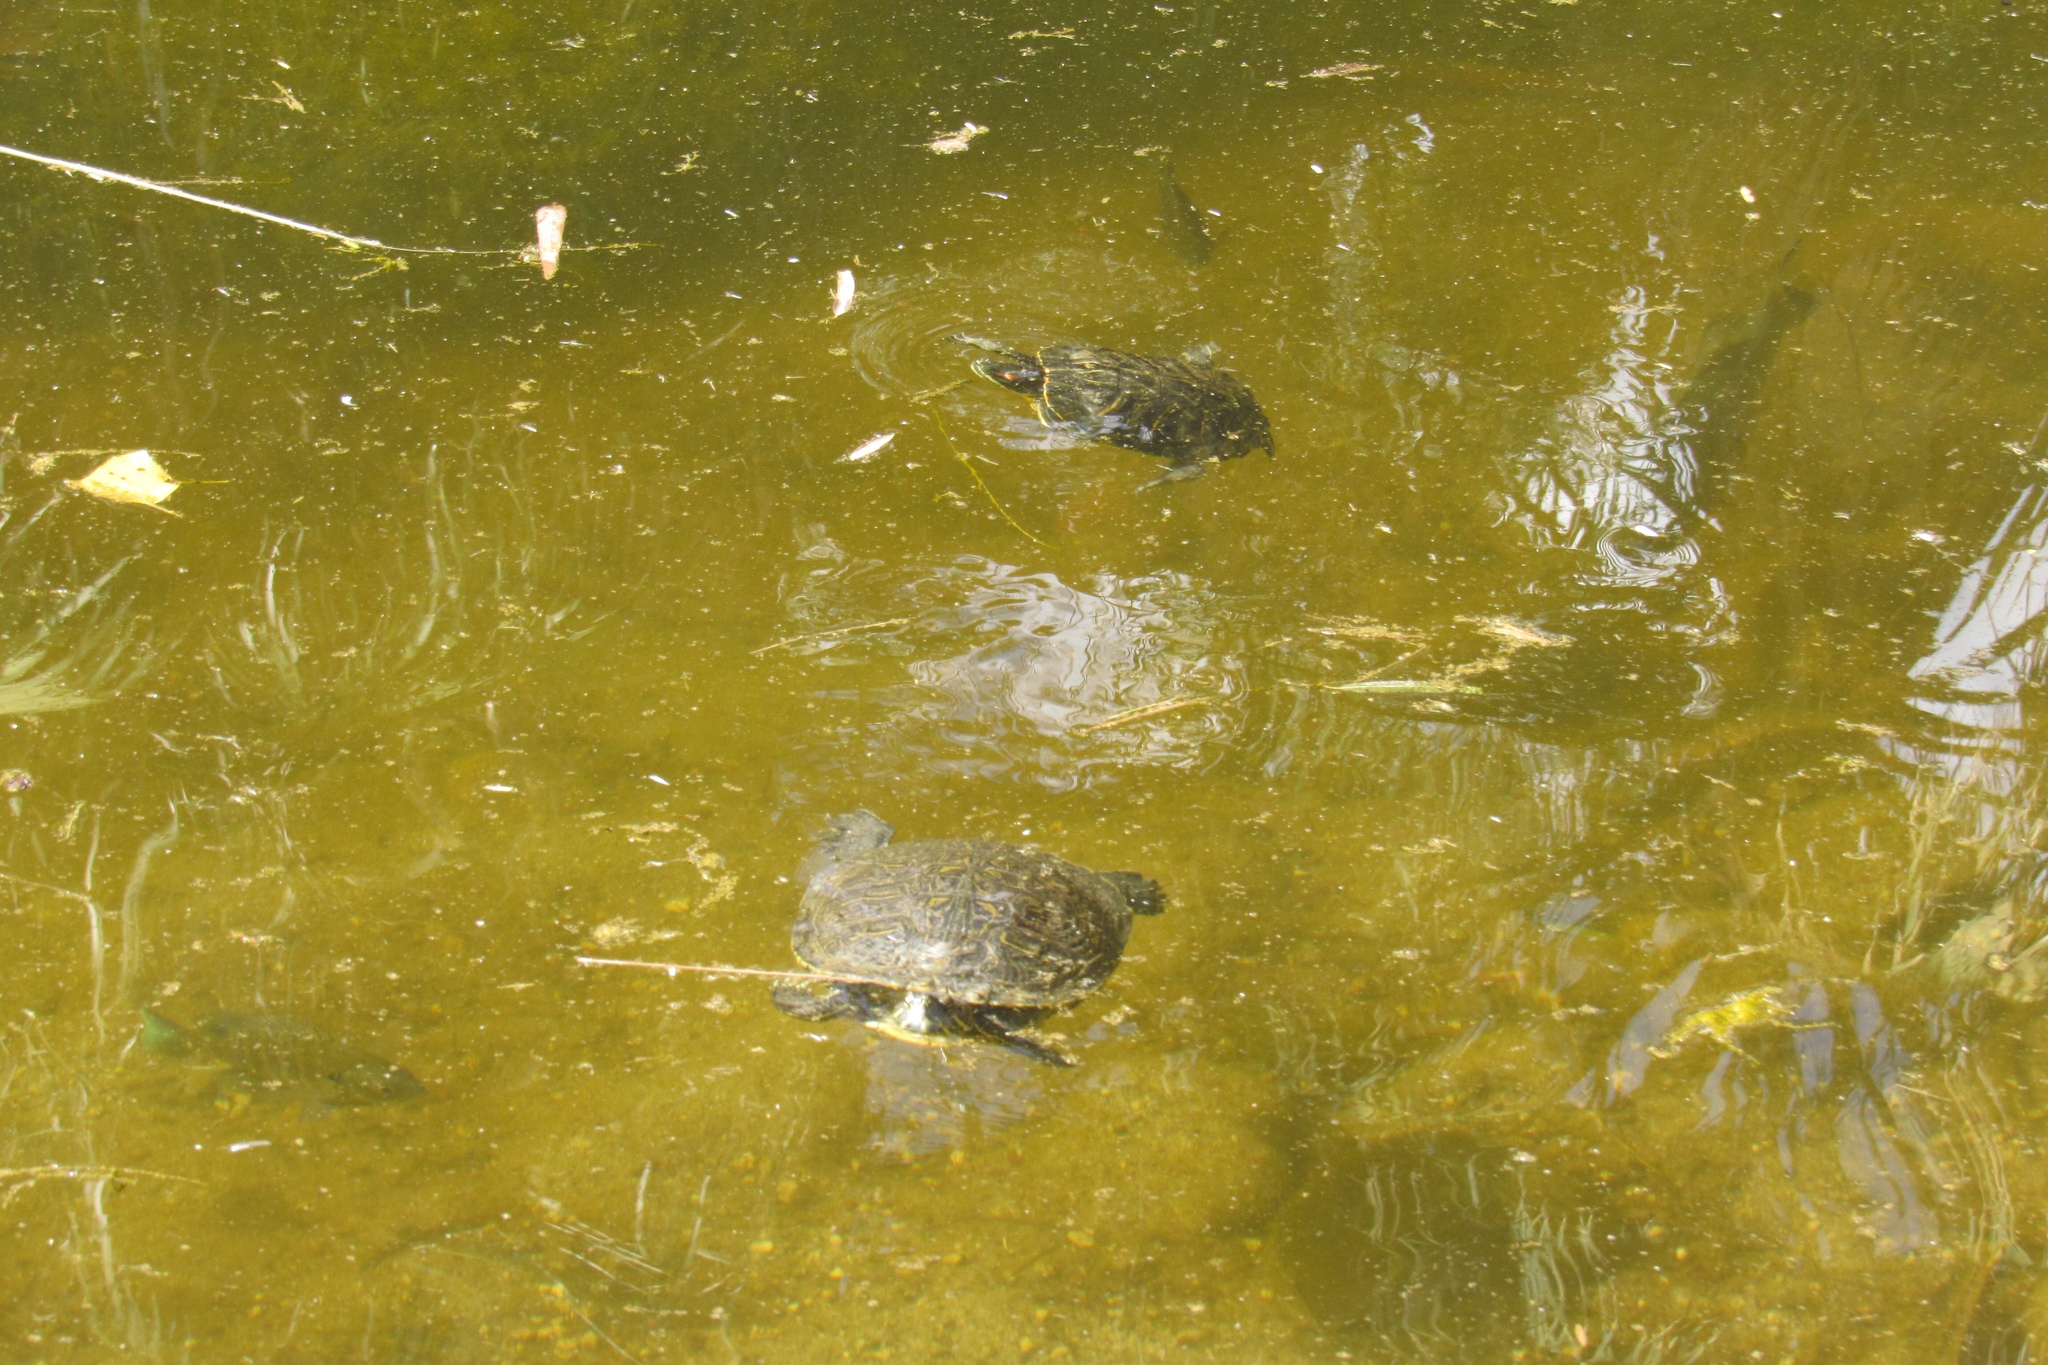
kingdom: Animalia
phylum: Chordata
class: Testudines
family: Emydidae
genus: Trachemys
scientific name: Trachemys scripta
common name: Slider
